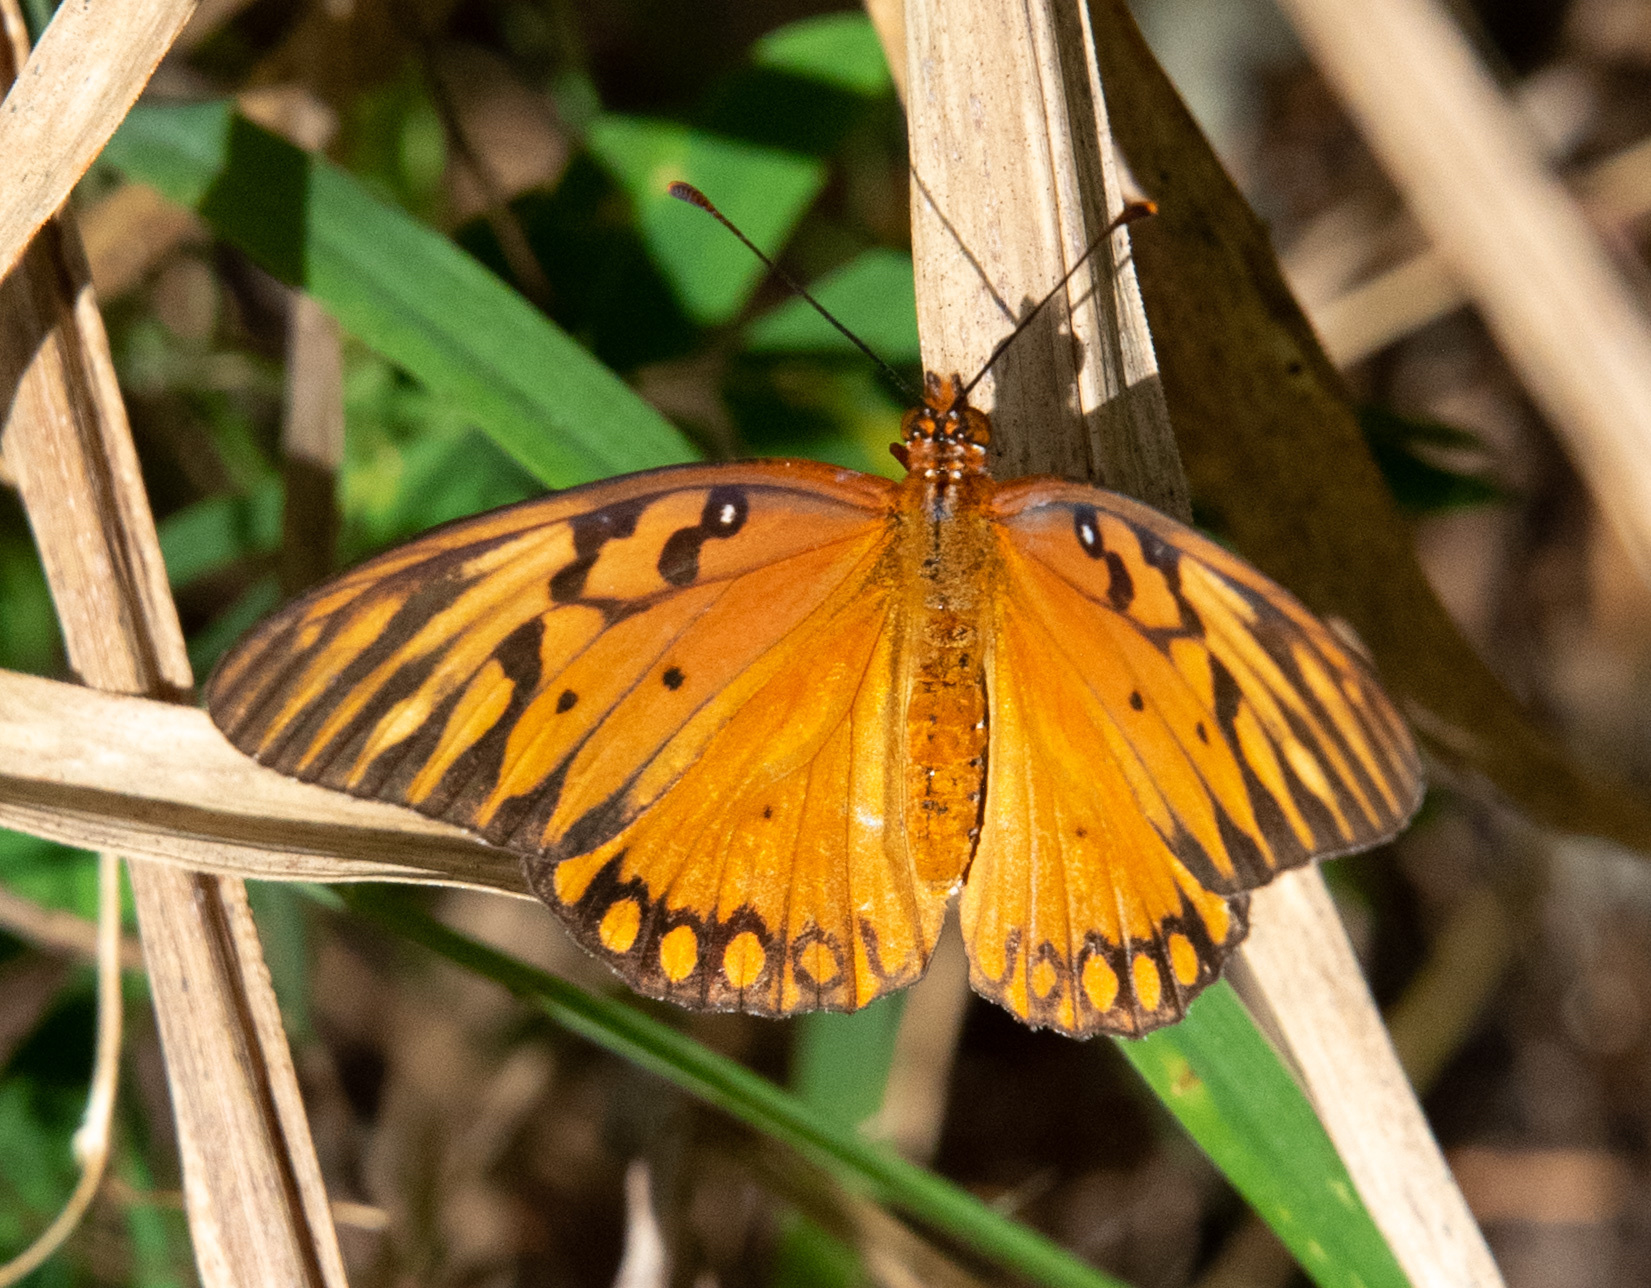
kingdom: Animalia
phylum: Arthropoda
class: Insecta
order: Lepidoptera
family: Nymphalidae
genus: Dione
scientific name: Dione vanillae
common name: Gulf fritillary
